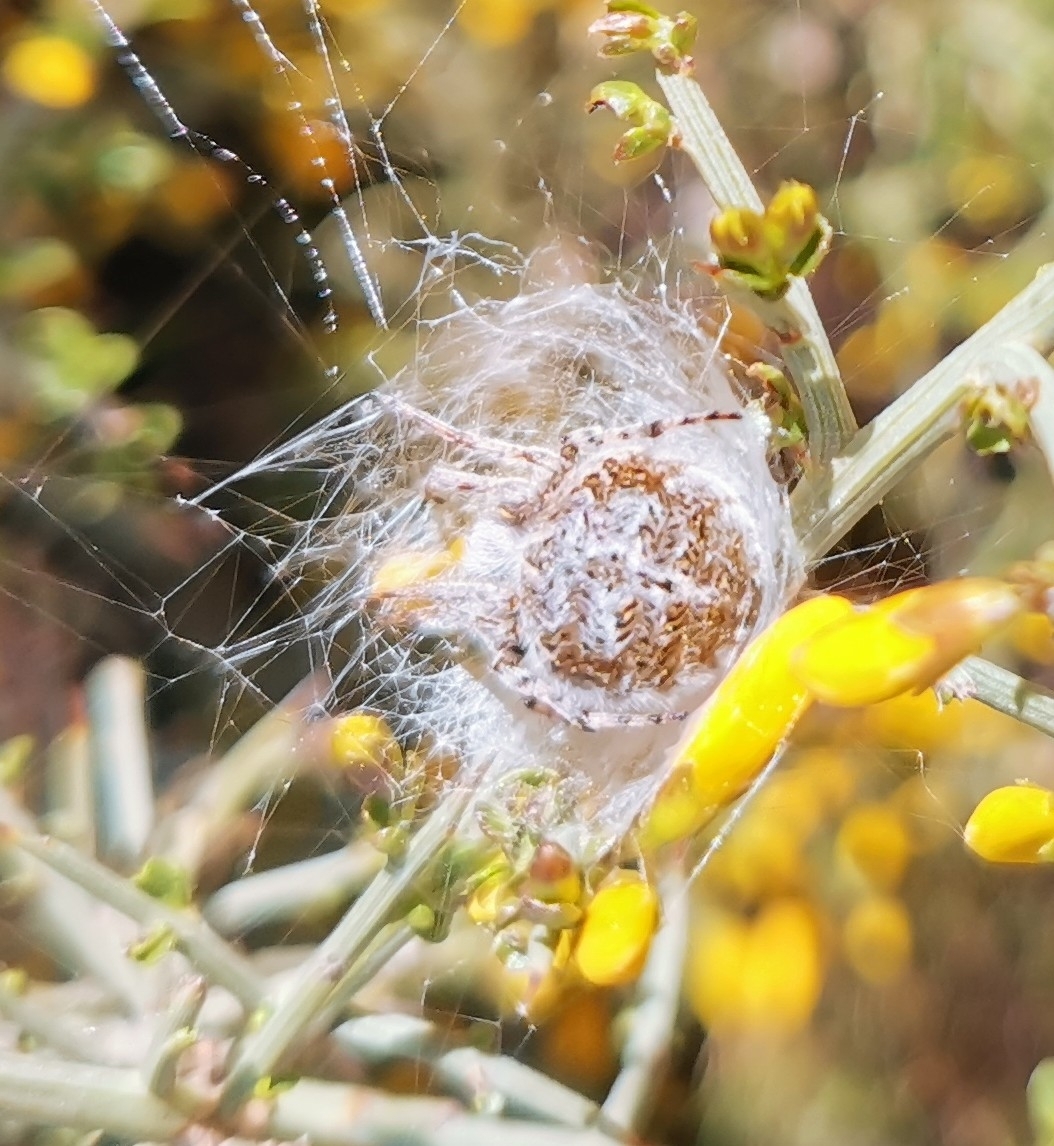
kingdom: Animalia
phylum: Arthropoda
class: Arachnida
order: Araneae
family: Araneidae
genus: Agalenatea
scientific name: Agalenatea redii
